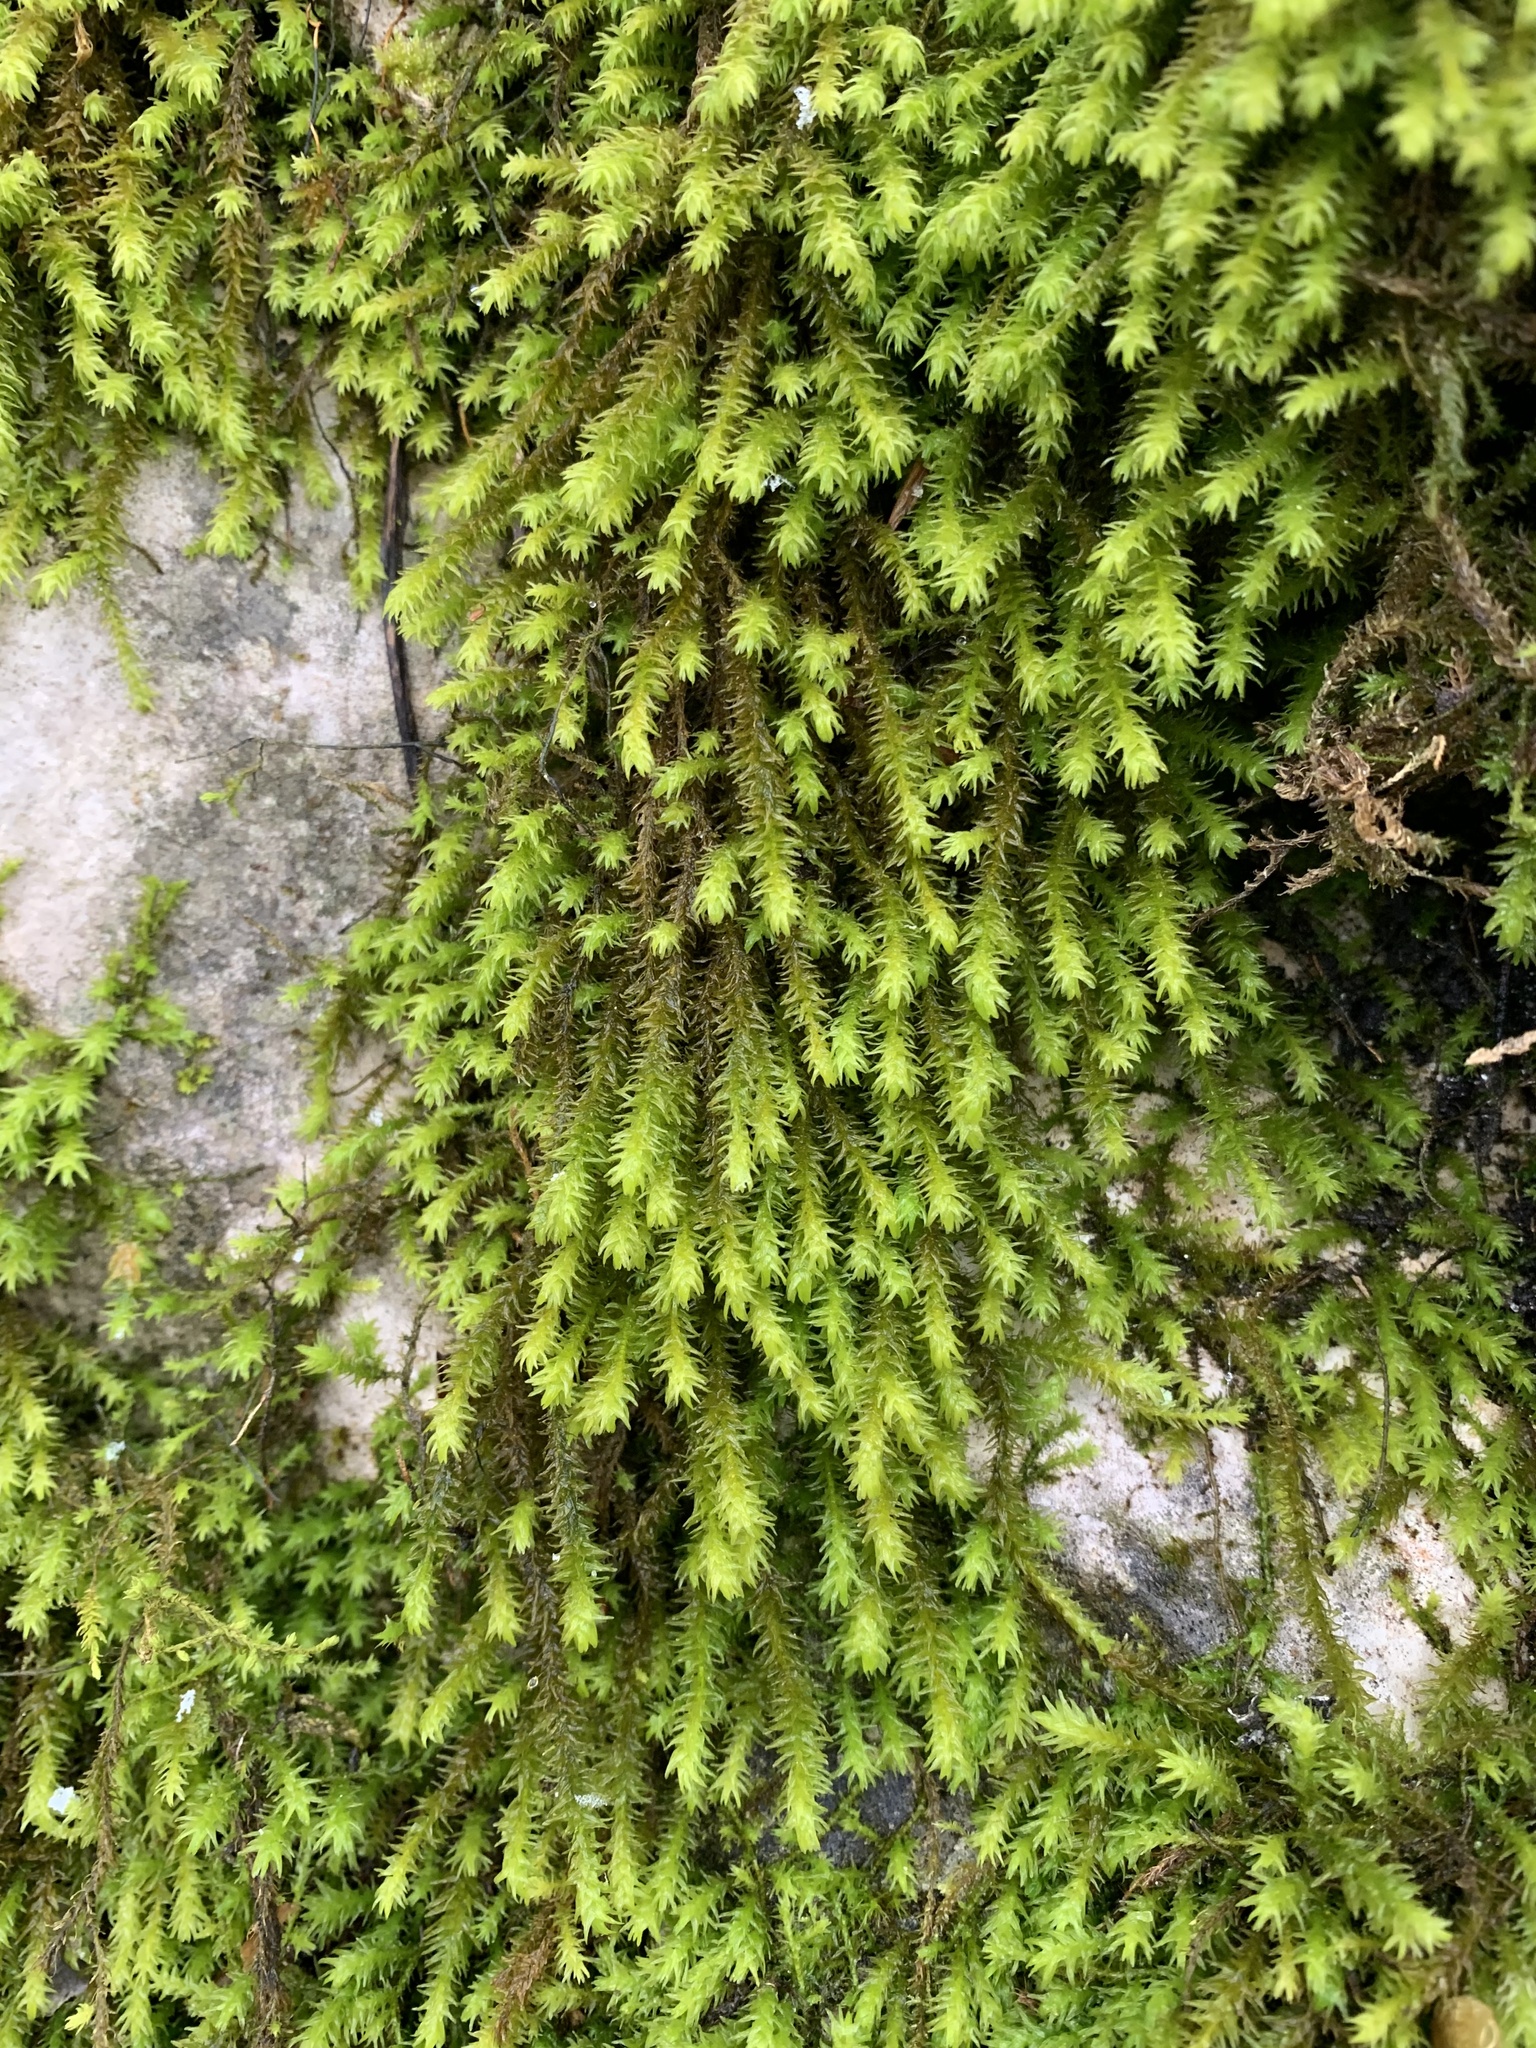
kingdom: Plantae
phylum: Bryophyta
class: Bryopsida
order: Hypnales
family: Anomodontaceae
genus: Anomodon
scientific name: Anomodon viticulosus
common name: Tall anomodon
